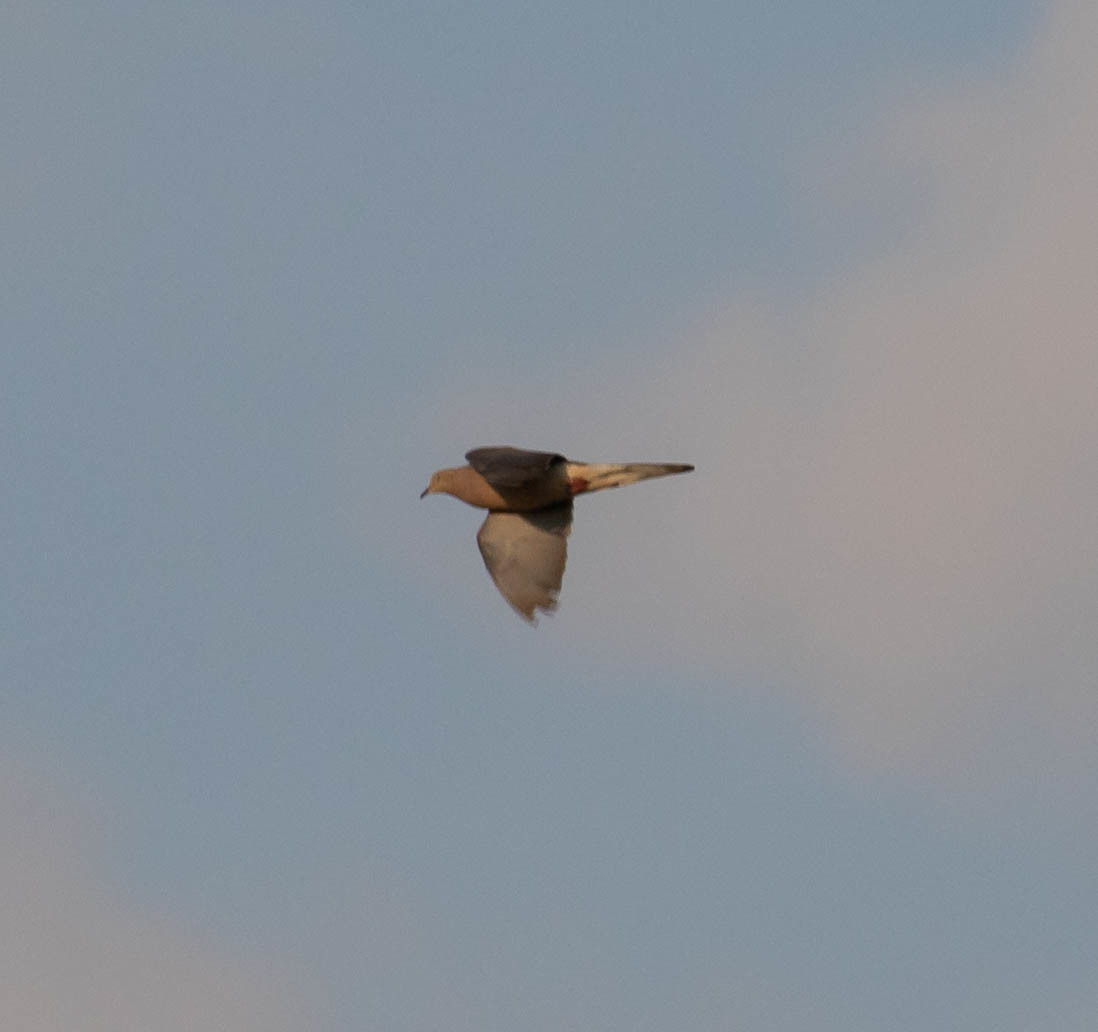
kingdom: Animalia
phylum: Chordata
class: Aves
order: Columbiformes
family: Columbidae
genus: Zenaida
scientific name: Zenaida macroura
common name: Mourning dove
